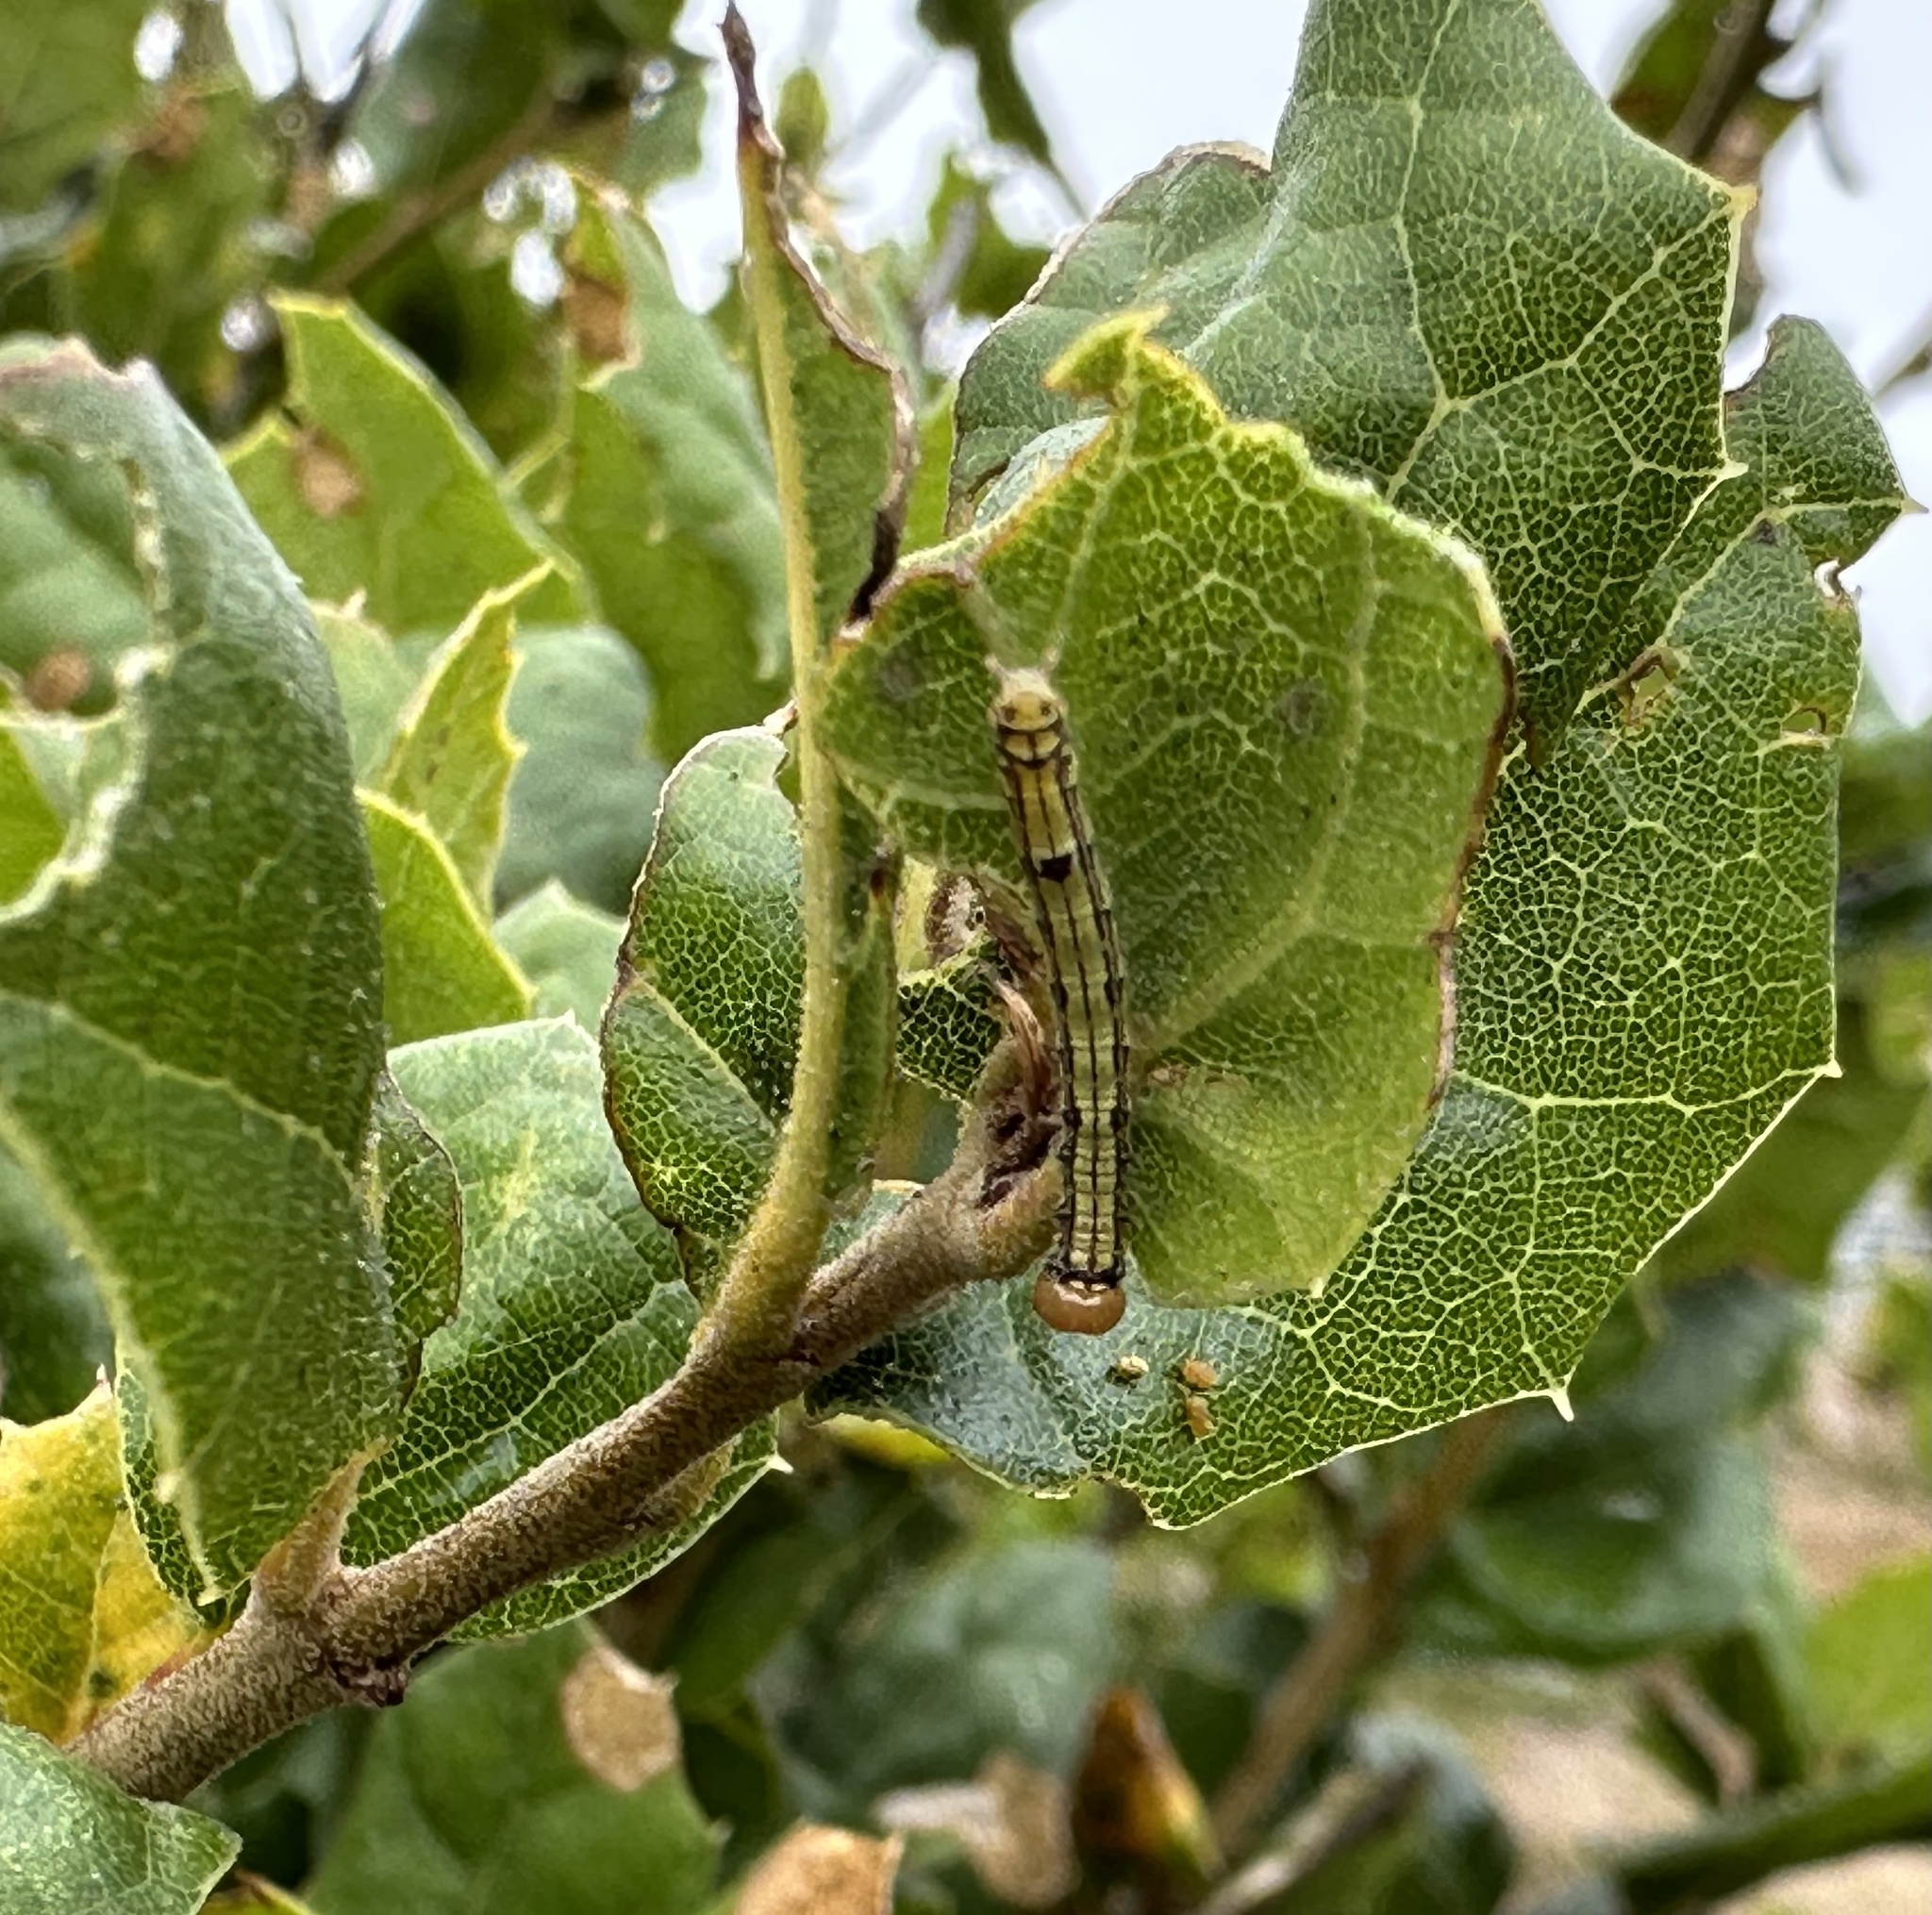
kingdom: Animalia
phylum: Arthropoda
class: Insecta
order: Lepidoptera
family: Notodontidae
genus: Phryganidia
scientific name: Phryganidia californica
